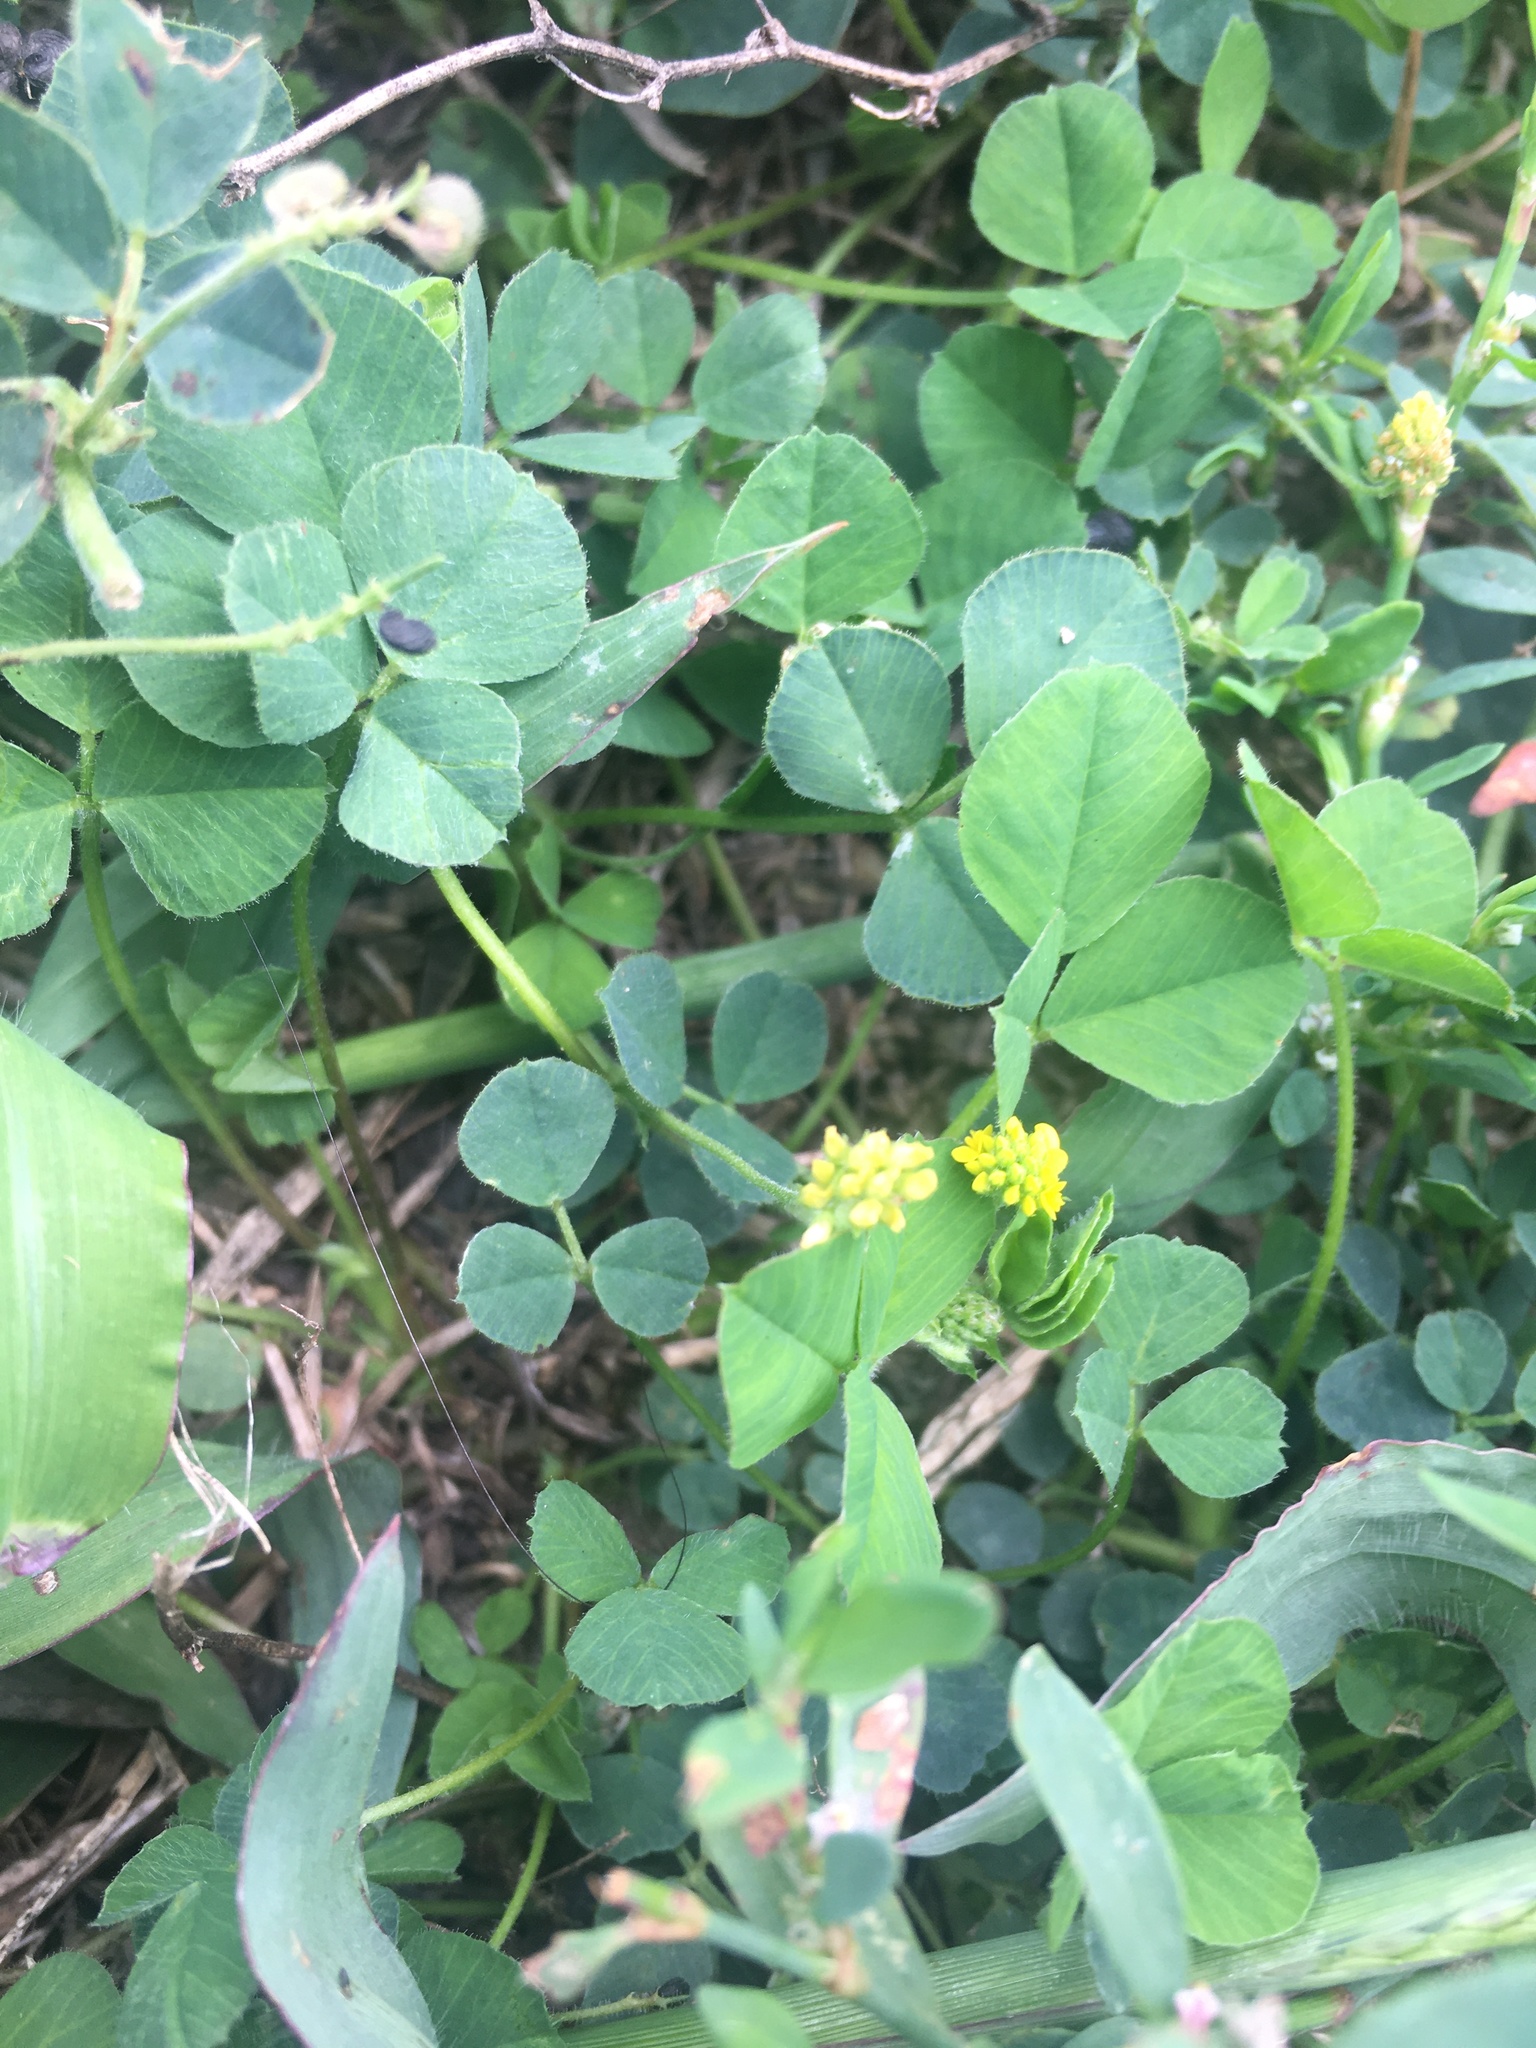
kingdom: Plantae
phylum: Tracheophyta
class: Magnoliopsida
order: Fabales
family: Fabaceae
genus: Medicago
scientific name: Medicago lupulina
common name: Black medick
